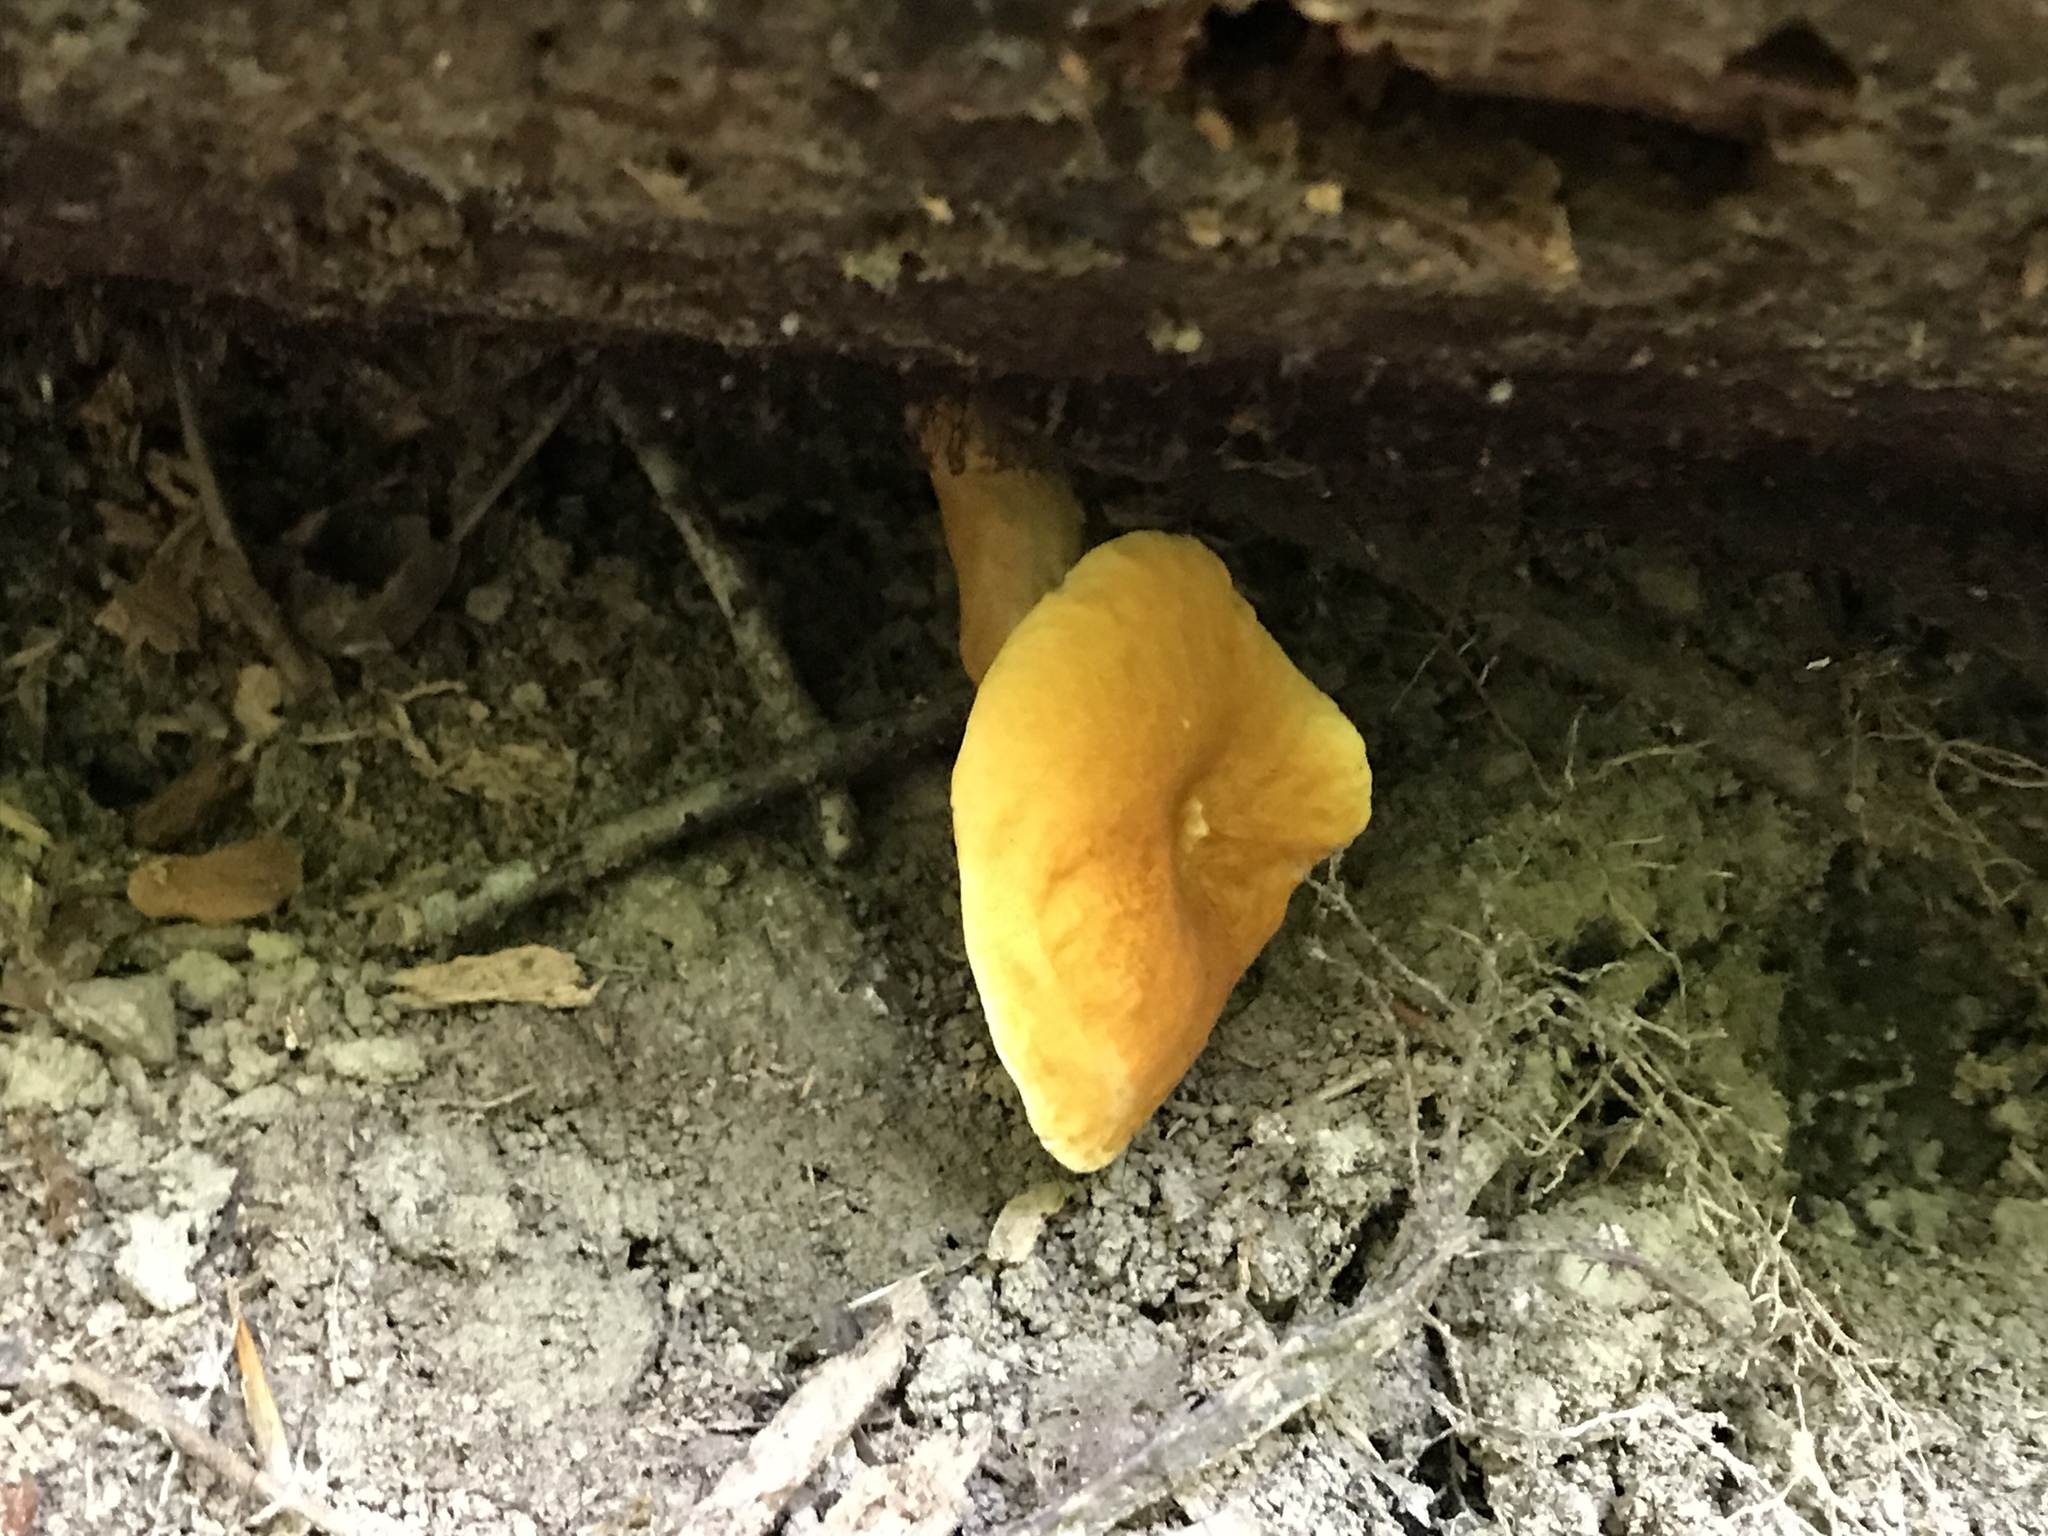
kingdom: Fungi
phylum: Basidiomycota
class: Agaricomycetes
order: Boletales
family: Gyroporaceae
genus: Gyroporus
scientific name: Gyroporus castaneus
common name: Chestnut bolete
